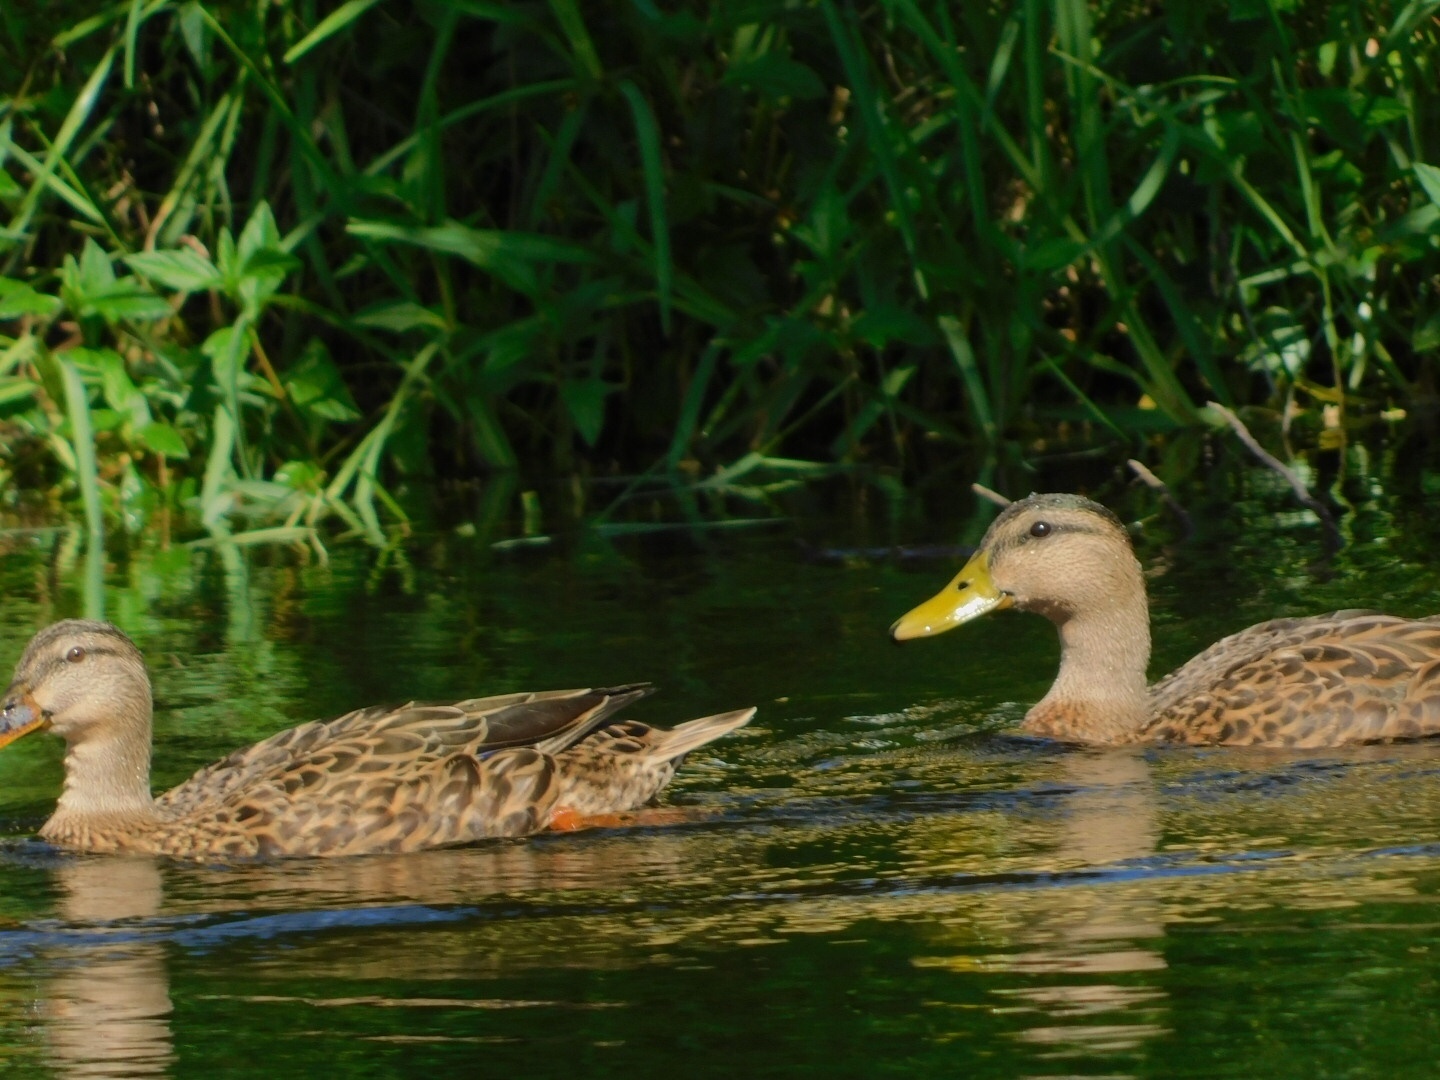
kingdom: Animalia
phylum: Chordata
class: Aves
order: Anseriformes
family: Anatidae
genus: Anas
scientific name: Anas
